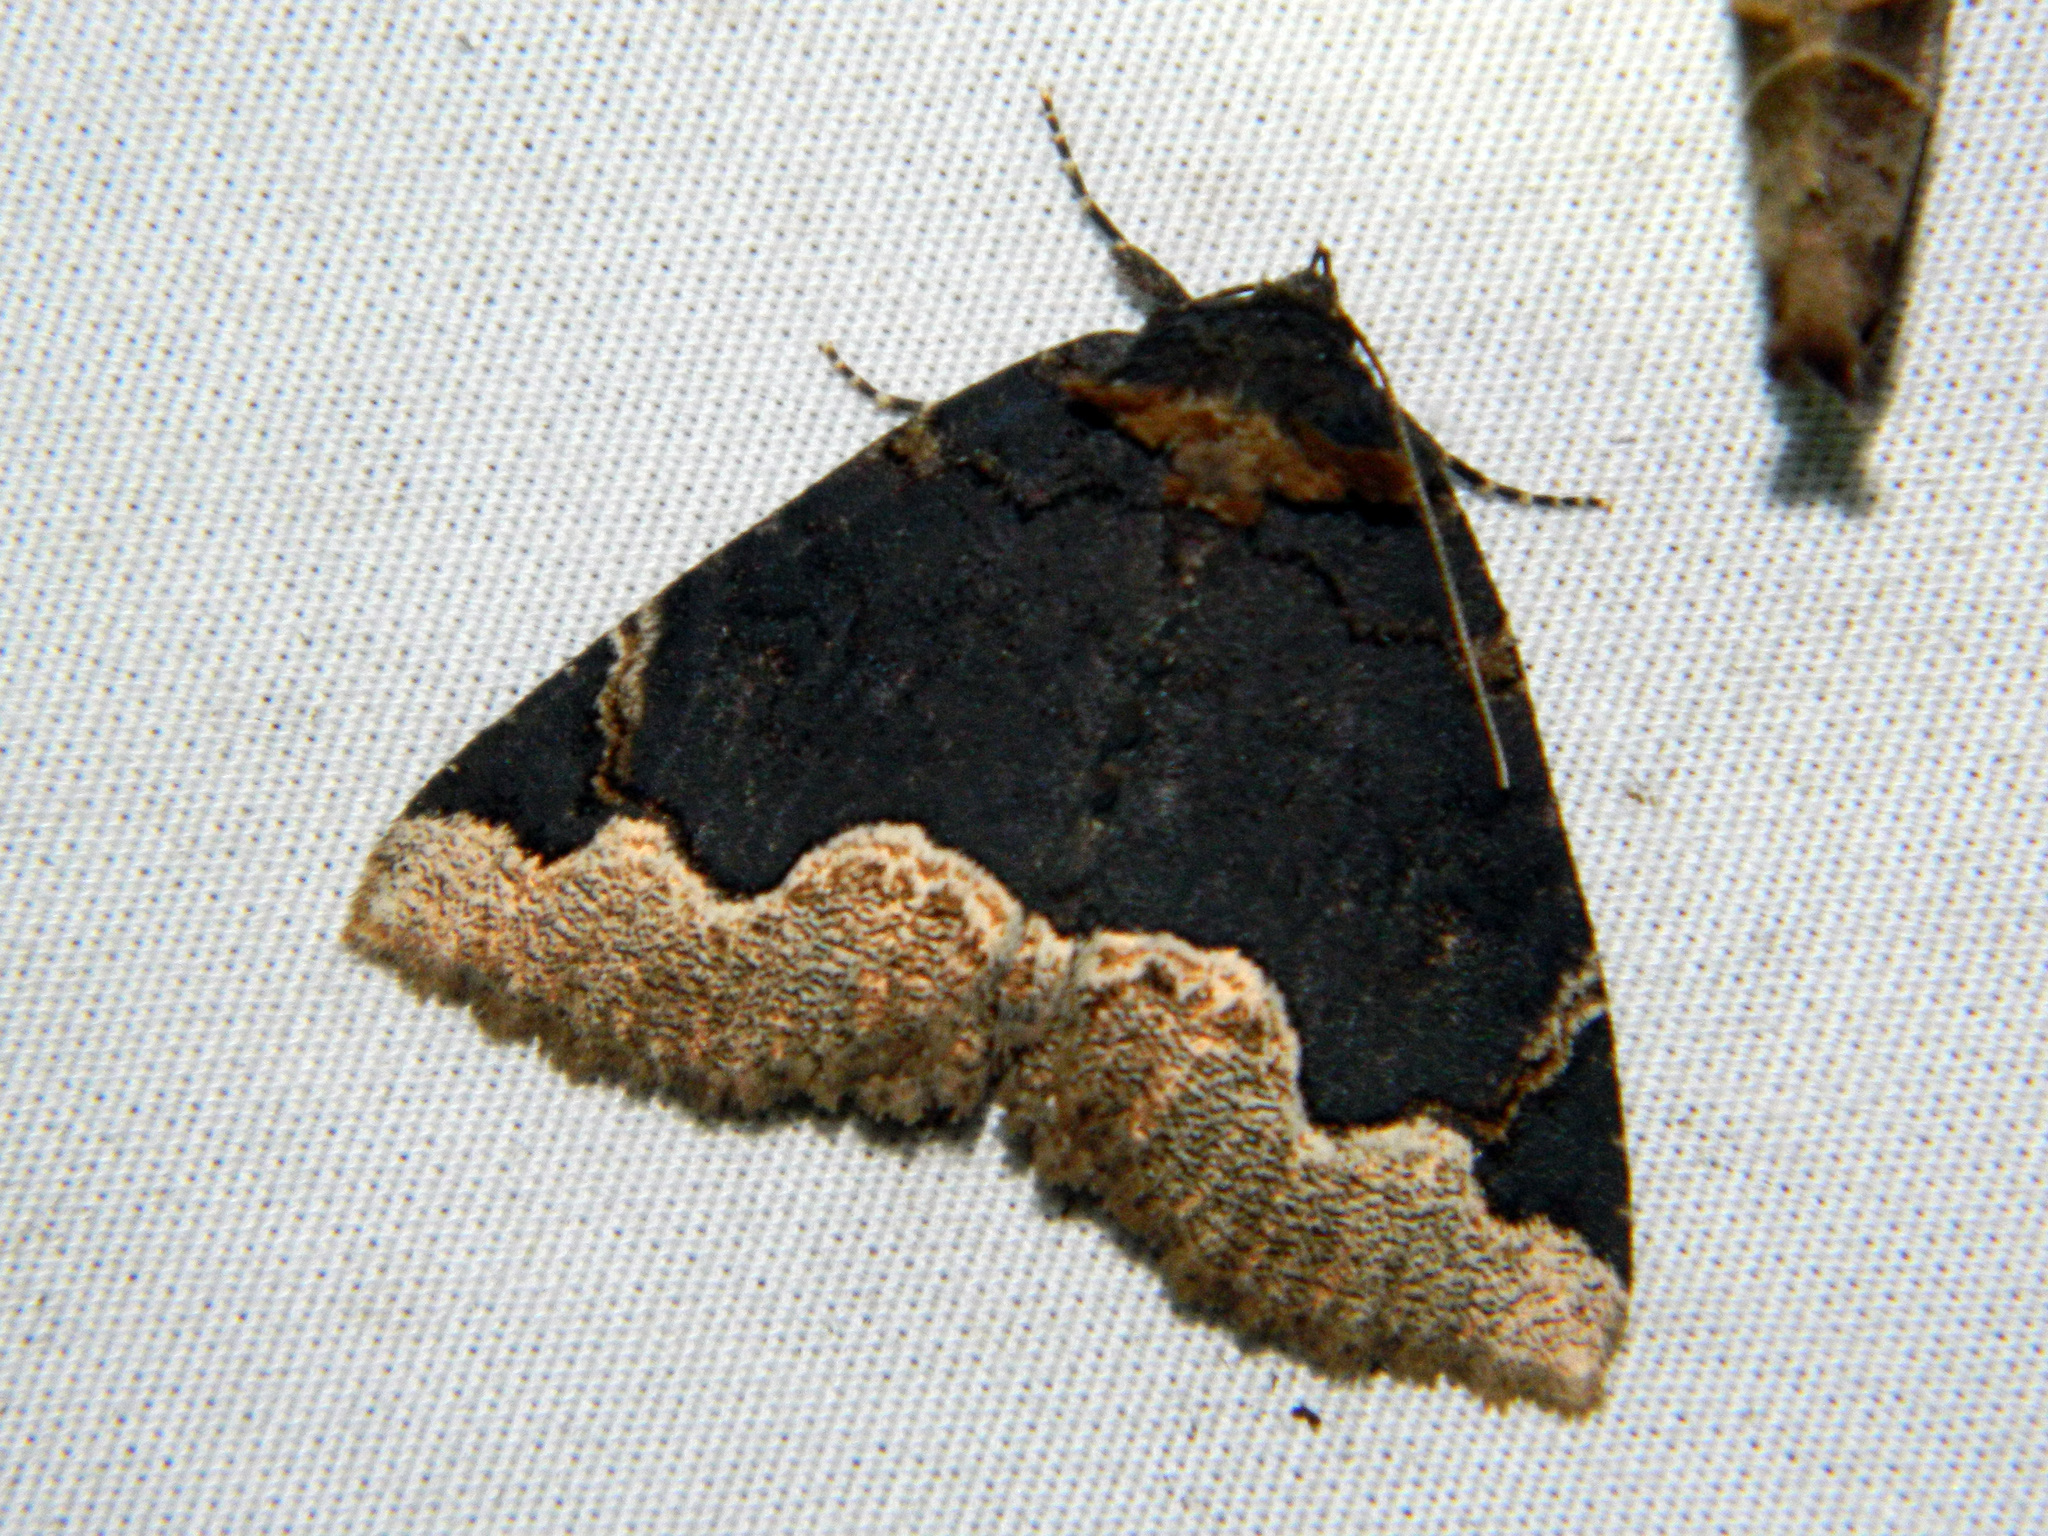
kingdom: Animalia
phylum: Arthropoda
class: Insecta
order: Lepidoptera
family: Erebidae
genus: Zale
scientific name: Zale horrida
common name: Horrid zale moth
